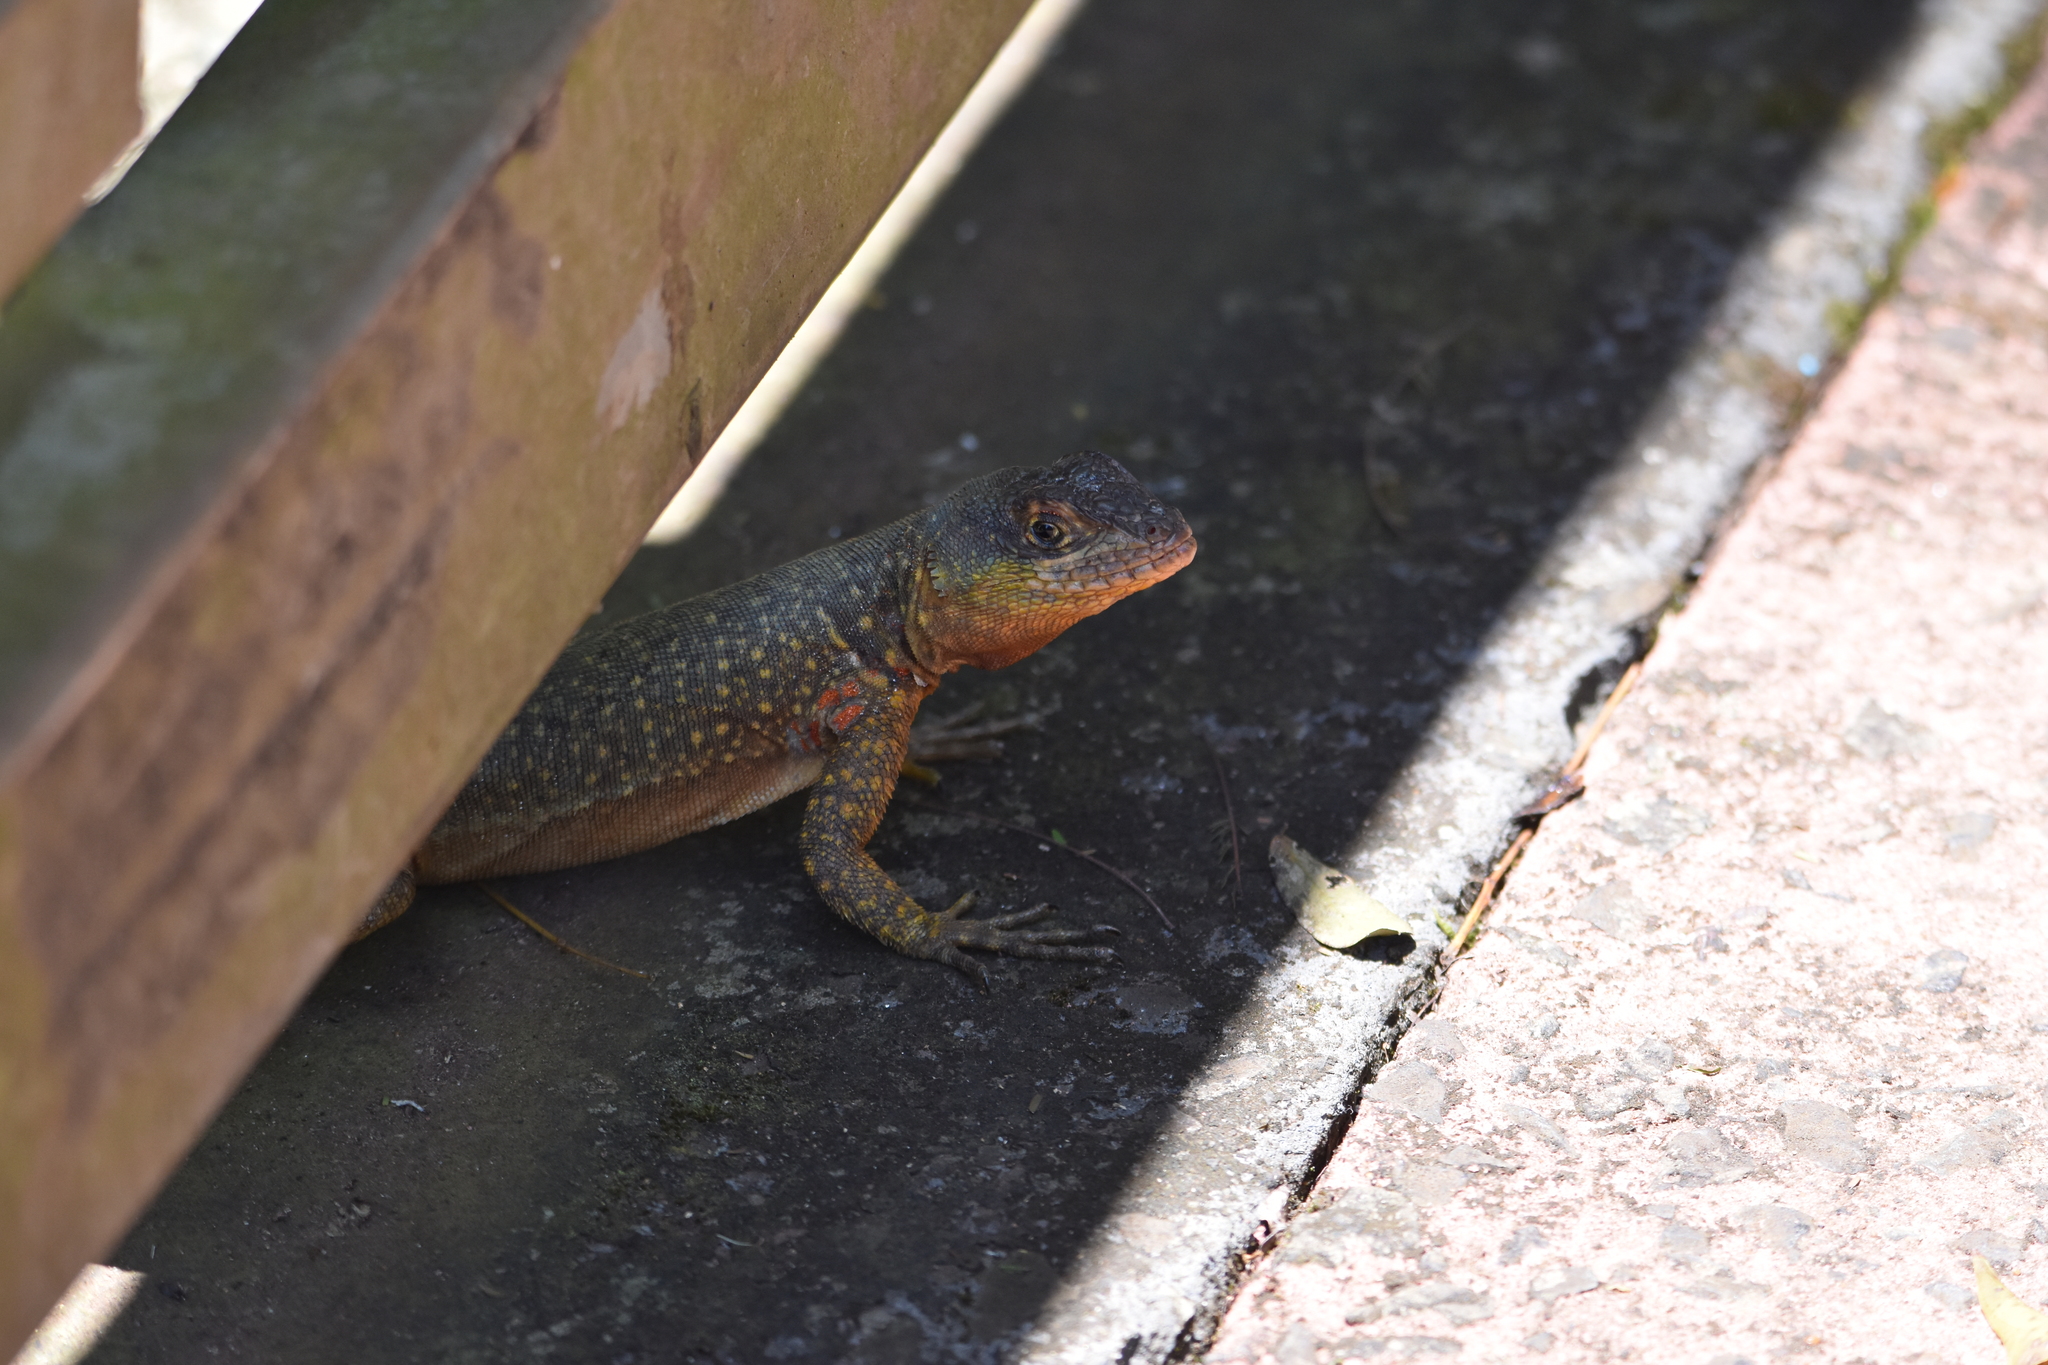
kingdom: Animalia
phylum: Chordata
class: Squamata
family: Tropiduridae
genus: Tropidurus
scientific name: Tropidurus catalanensis
